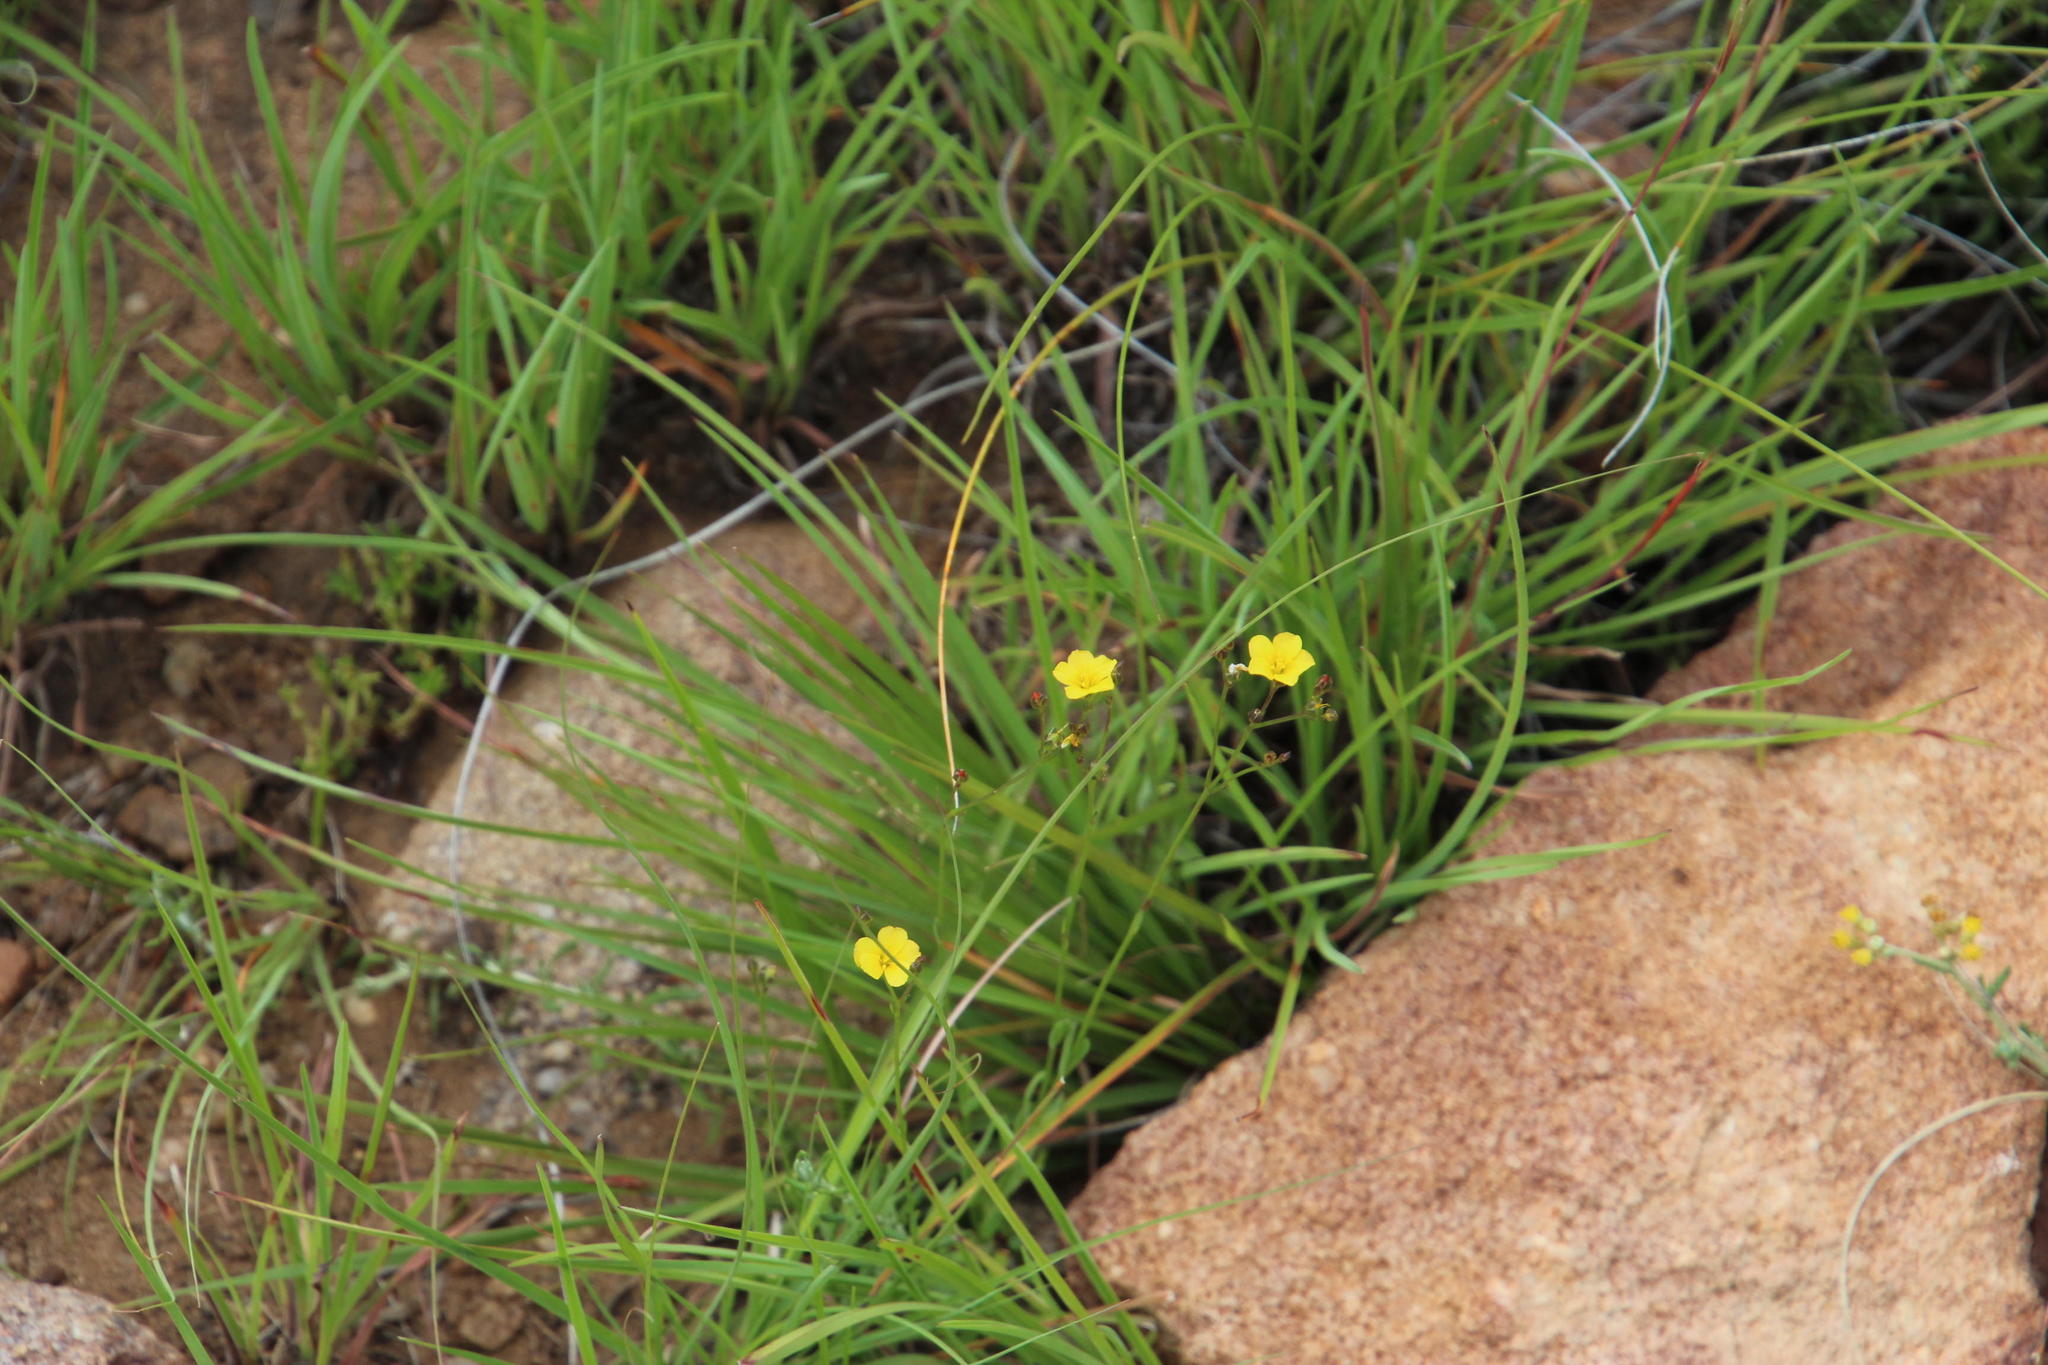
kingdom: Plantae
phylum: Tracheophyta
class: Magnoliopsida
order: Malpighiales
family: Linaceae
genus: Linum
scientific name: Linum thunbergii
